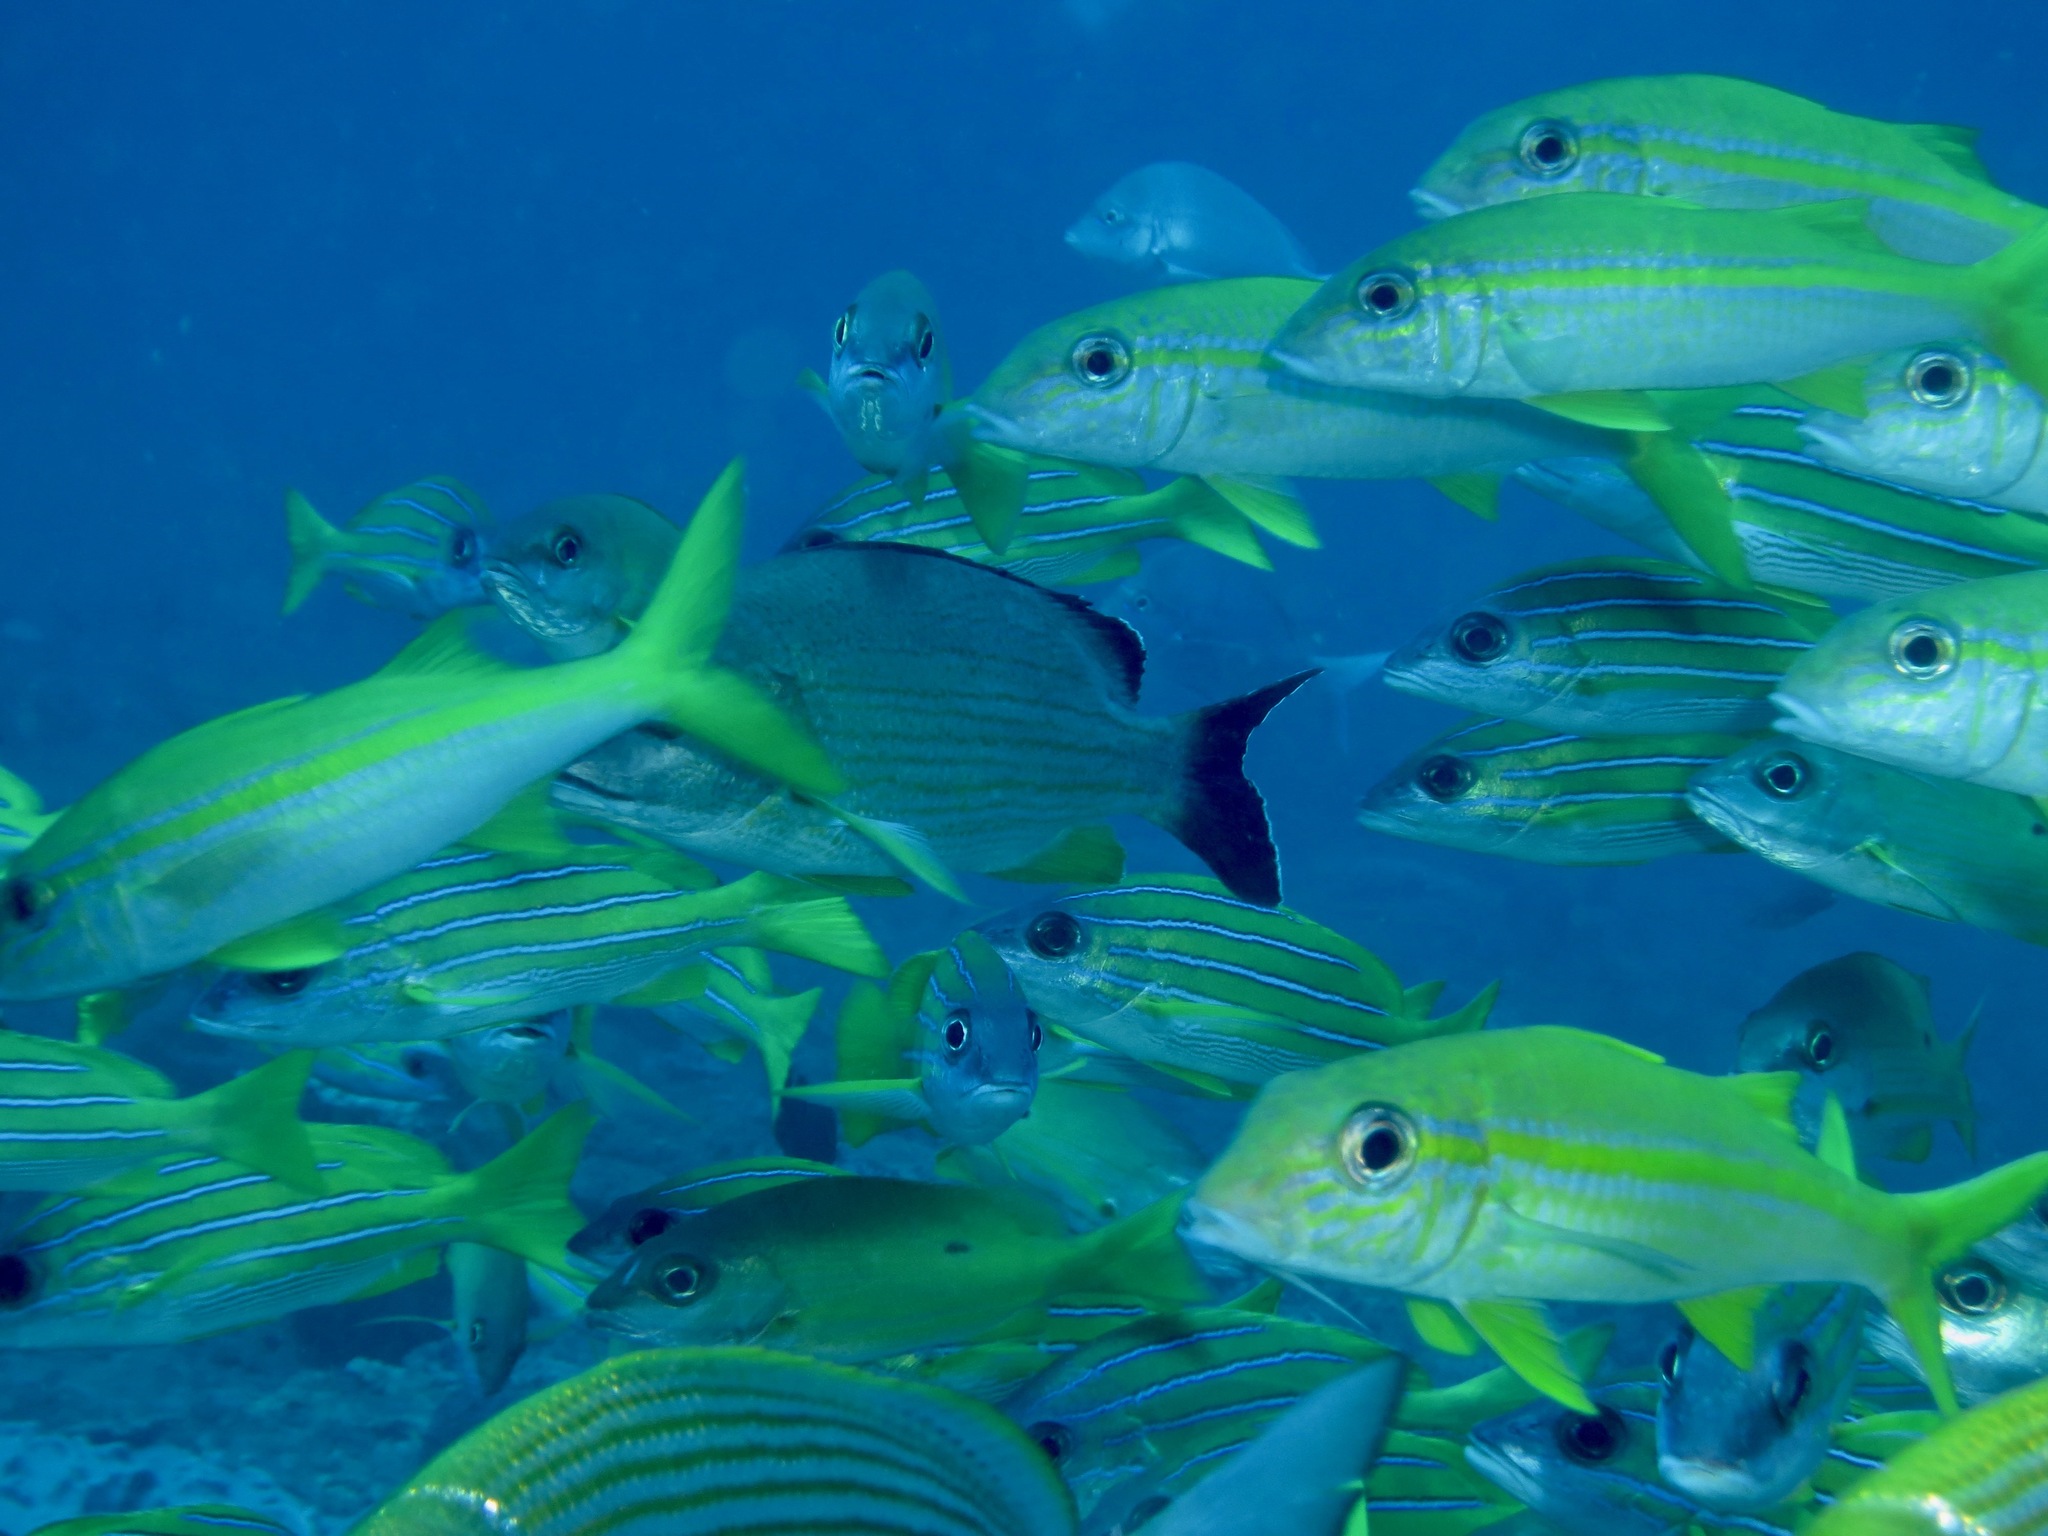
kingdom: Animalia
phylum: Chordata
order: Perciformes
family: Mullidae
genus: Mulloidichthys
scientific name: Mulloidichthys vanicolensis
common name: Yellowfin goatfish
